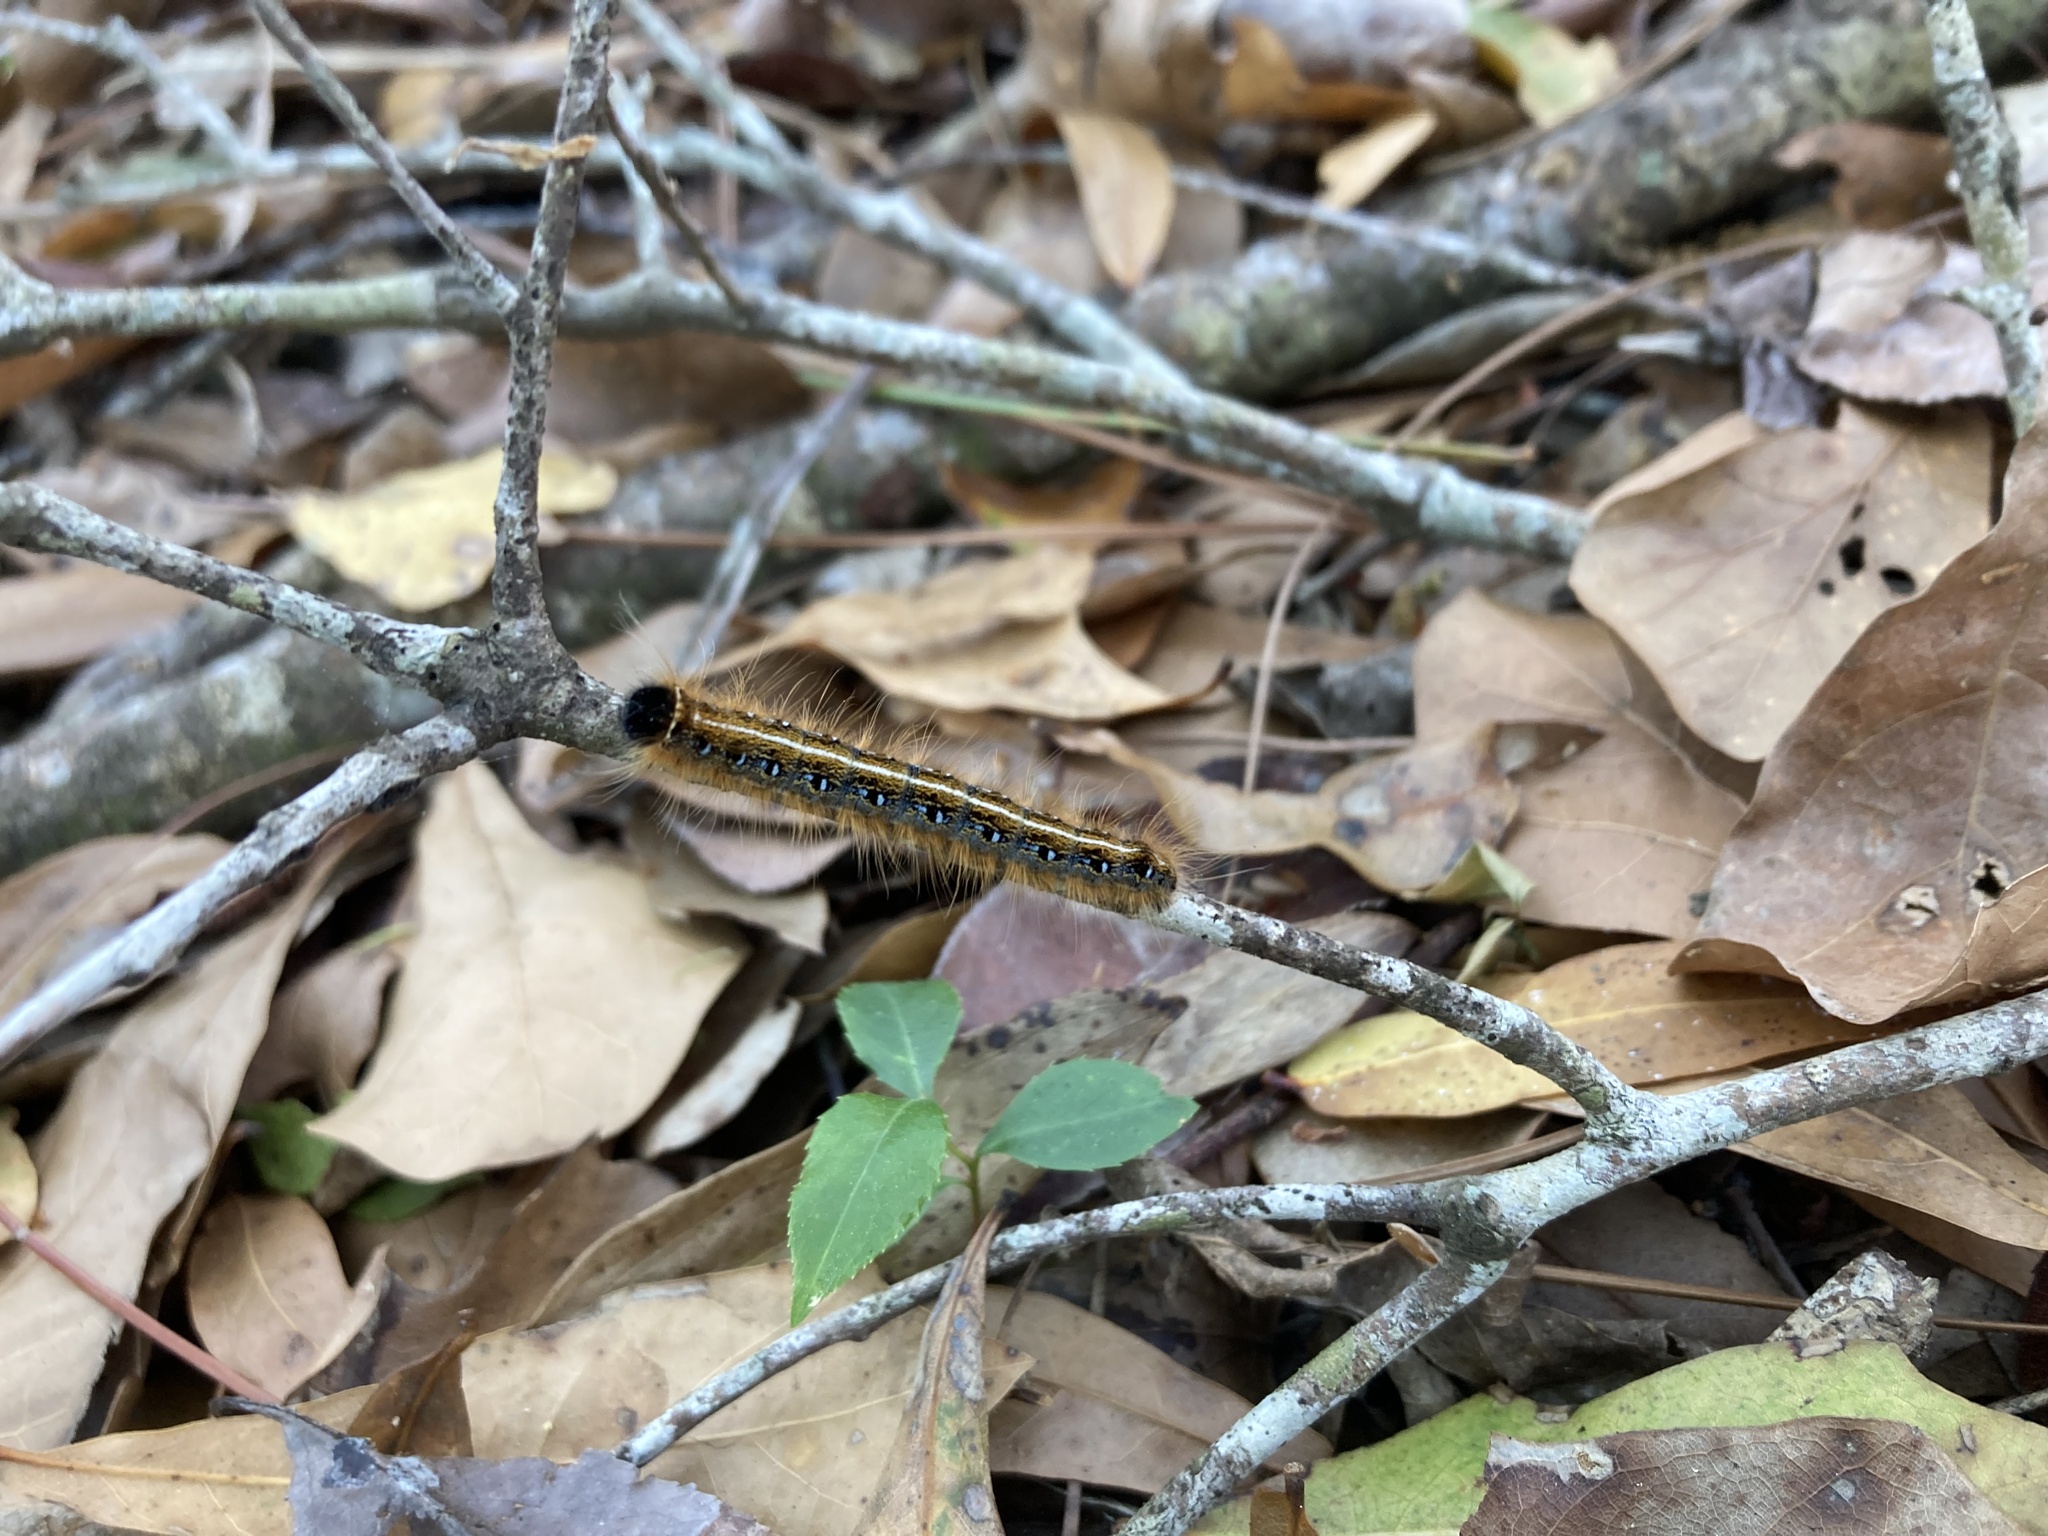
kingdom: Animalia
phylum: Arthropoda
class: Insecta
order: Lepidoptera
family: Lasiocampidae
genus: Malacosoma
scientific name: Malacosoma americana
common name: Eastern tent caterpillar moth
